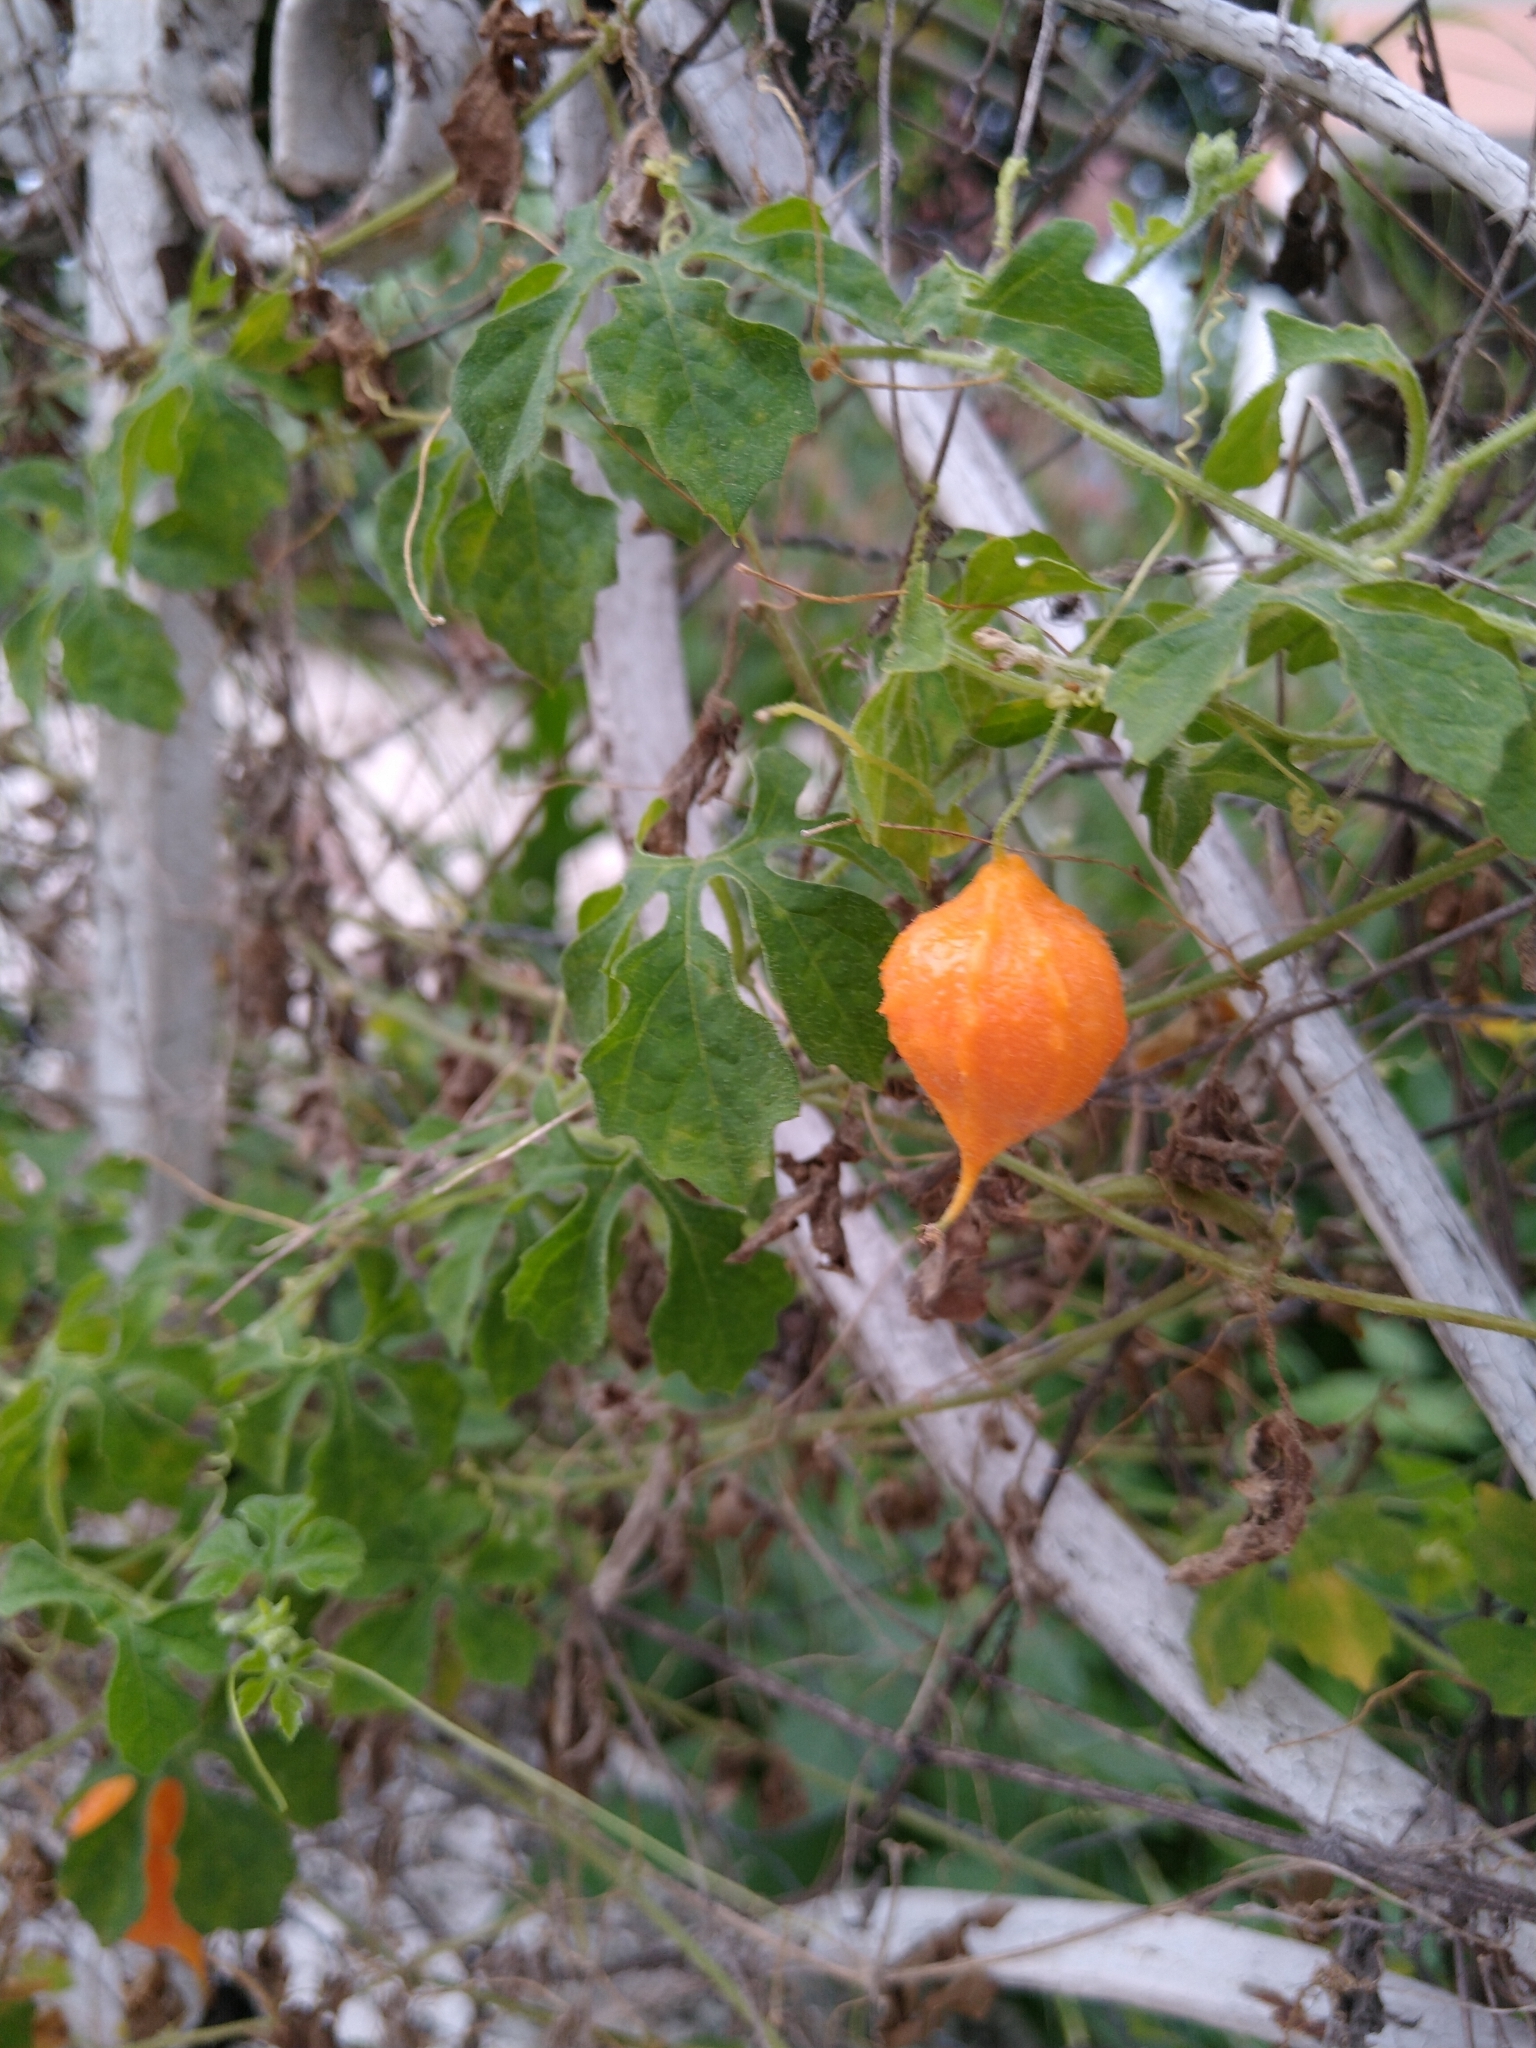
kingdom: Plantae
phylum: Tracheophyta
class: Magnoliopsida
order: Cucurbitales
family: Cucurbitaceae
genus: Momordica
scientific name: Momordica charantia
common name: Balsampear
